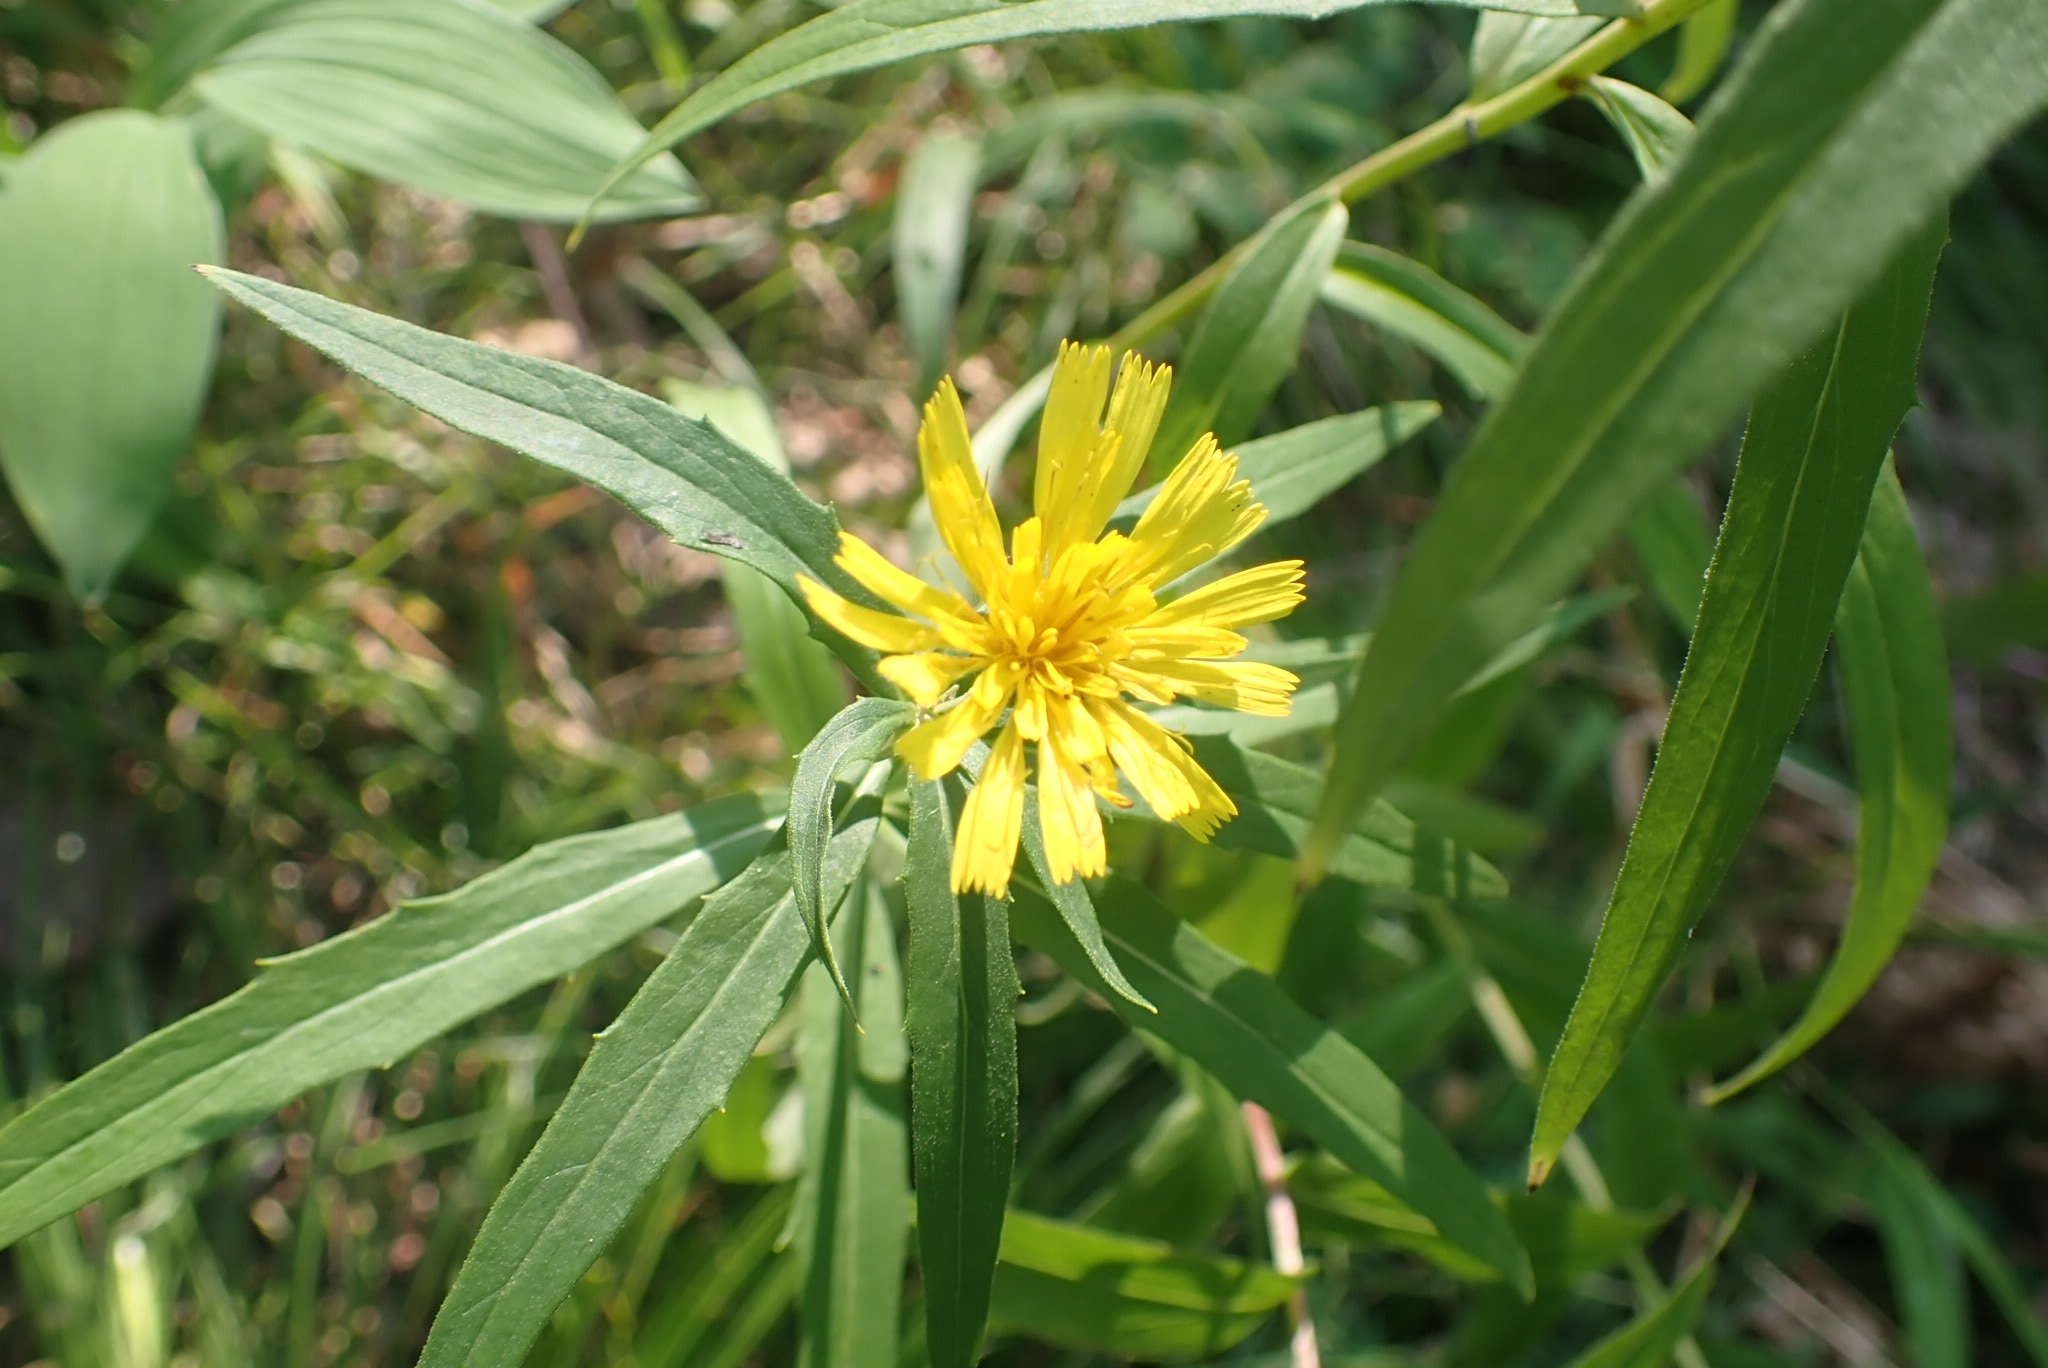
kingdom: Plantae
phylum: Tracheophyta
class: Magnoliopsida
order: Asterales
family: Asteraceae
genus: Hieracium
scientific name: Hieracium umbellatum
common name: Northern hawkweed
